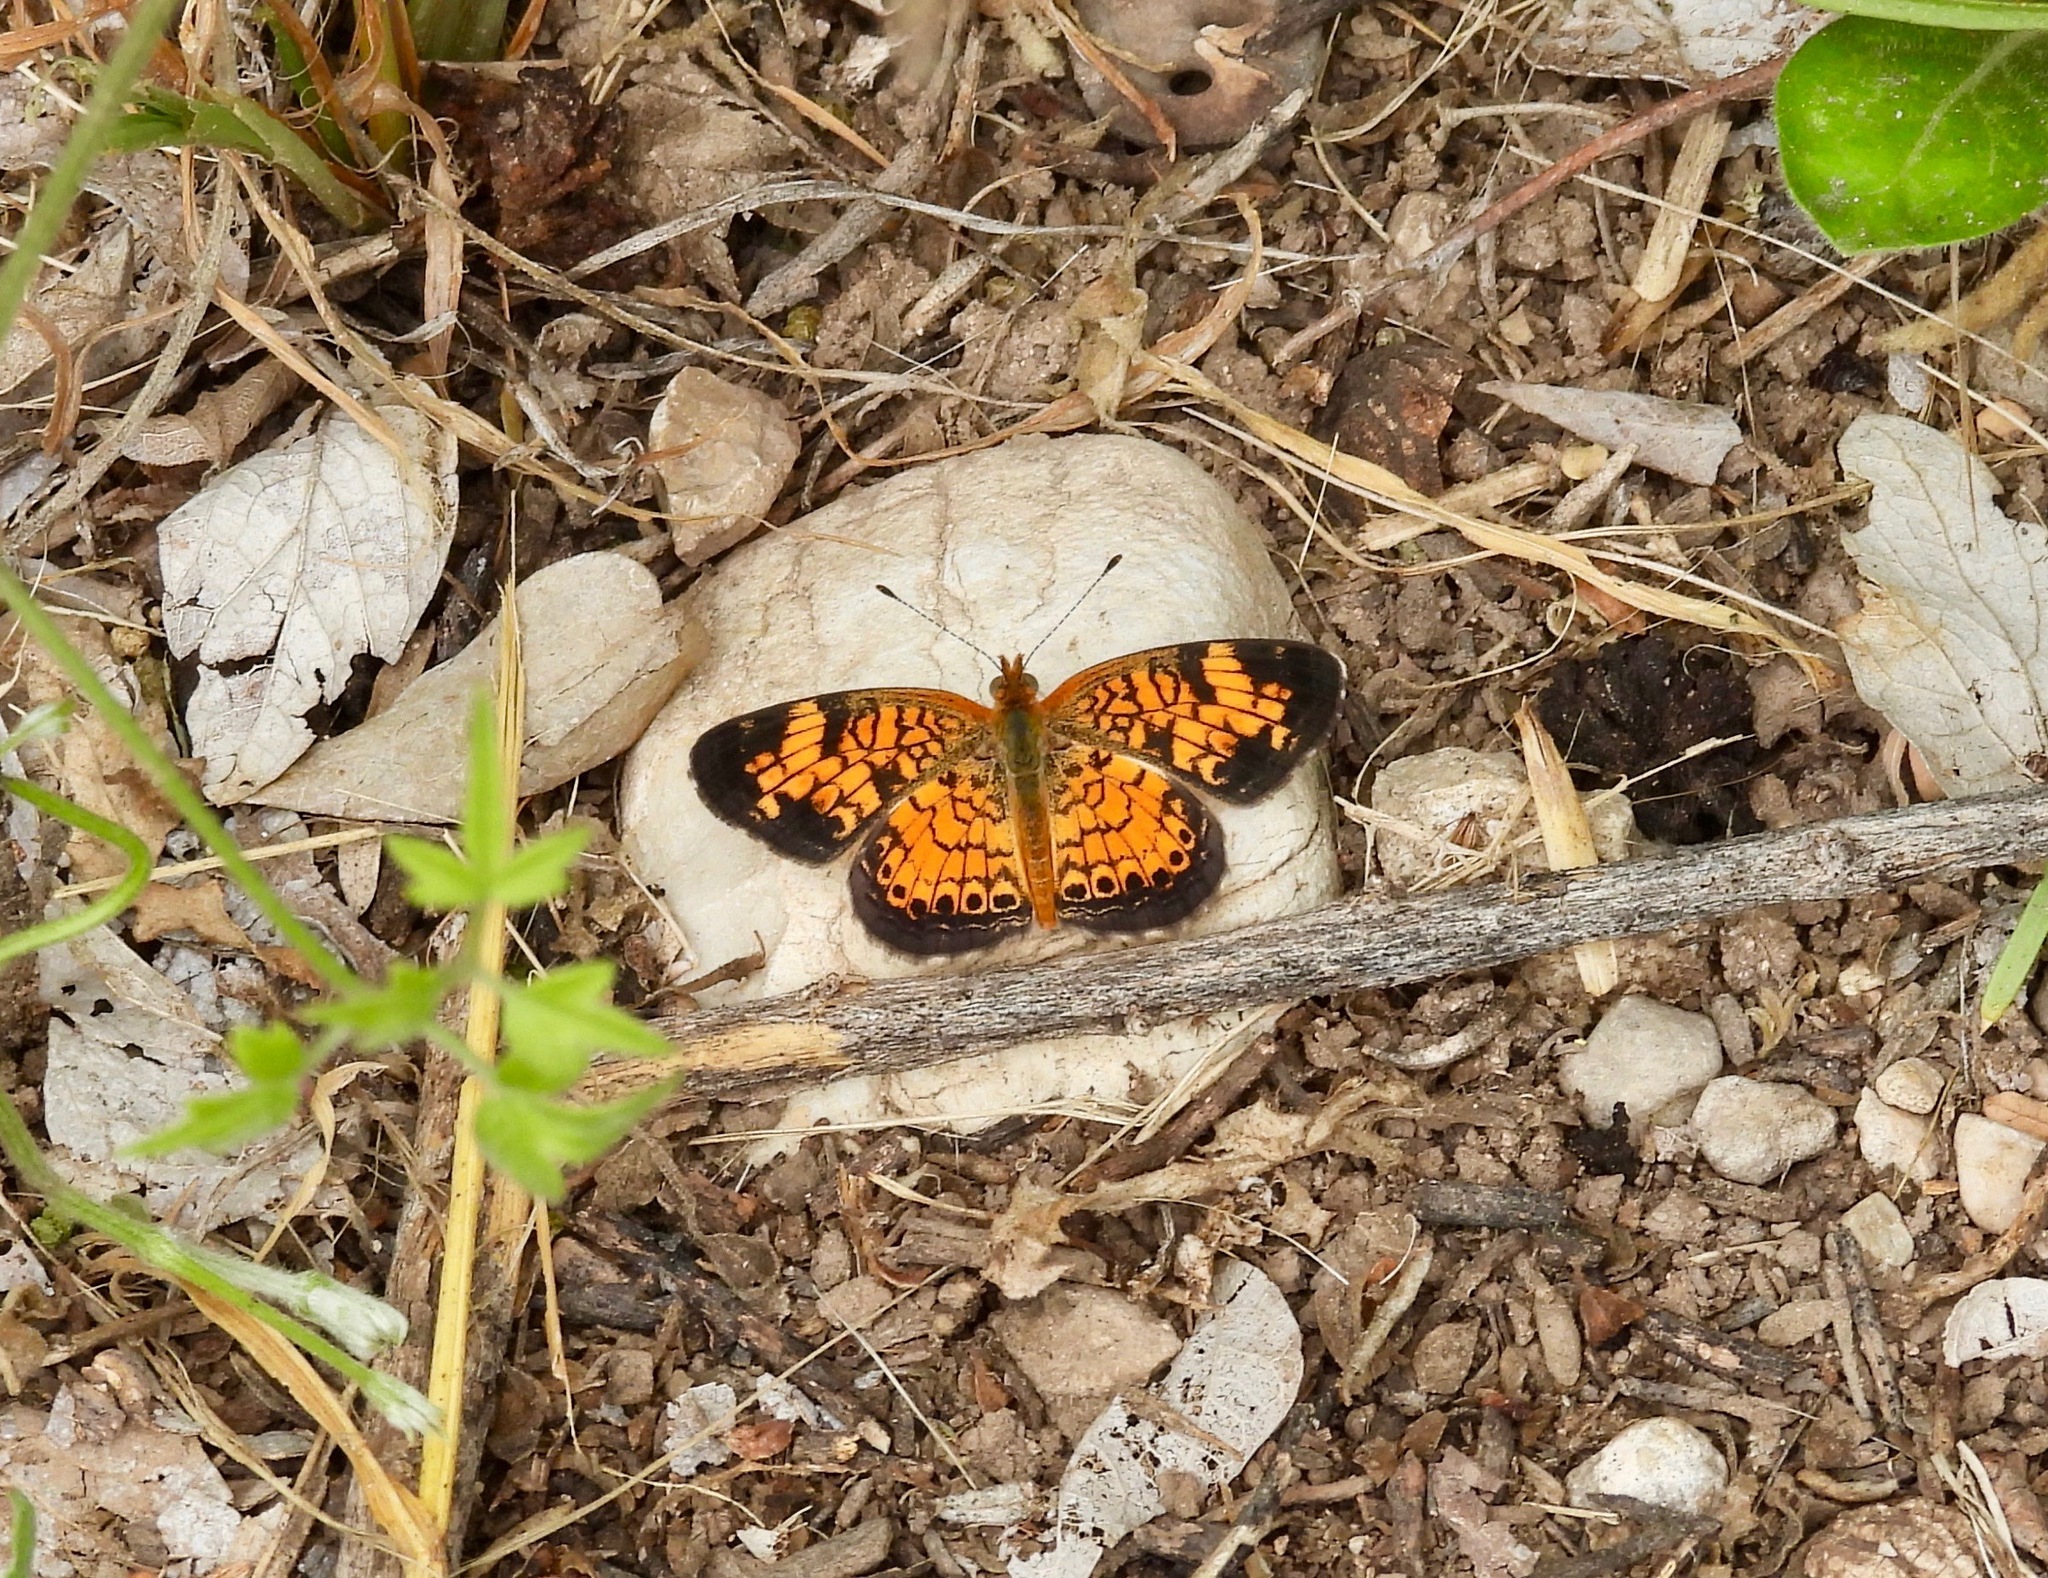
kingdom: Animalia
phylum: Arthropoda
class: Insecta
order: Lepidoptera
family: Nymphalidae
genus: Phyciodes
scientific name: Phyciodes tharos
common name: Pearl crescent
